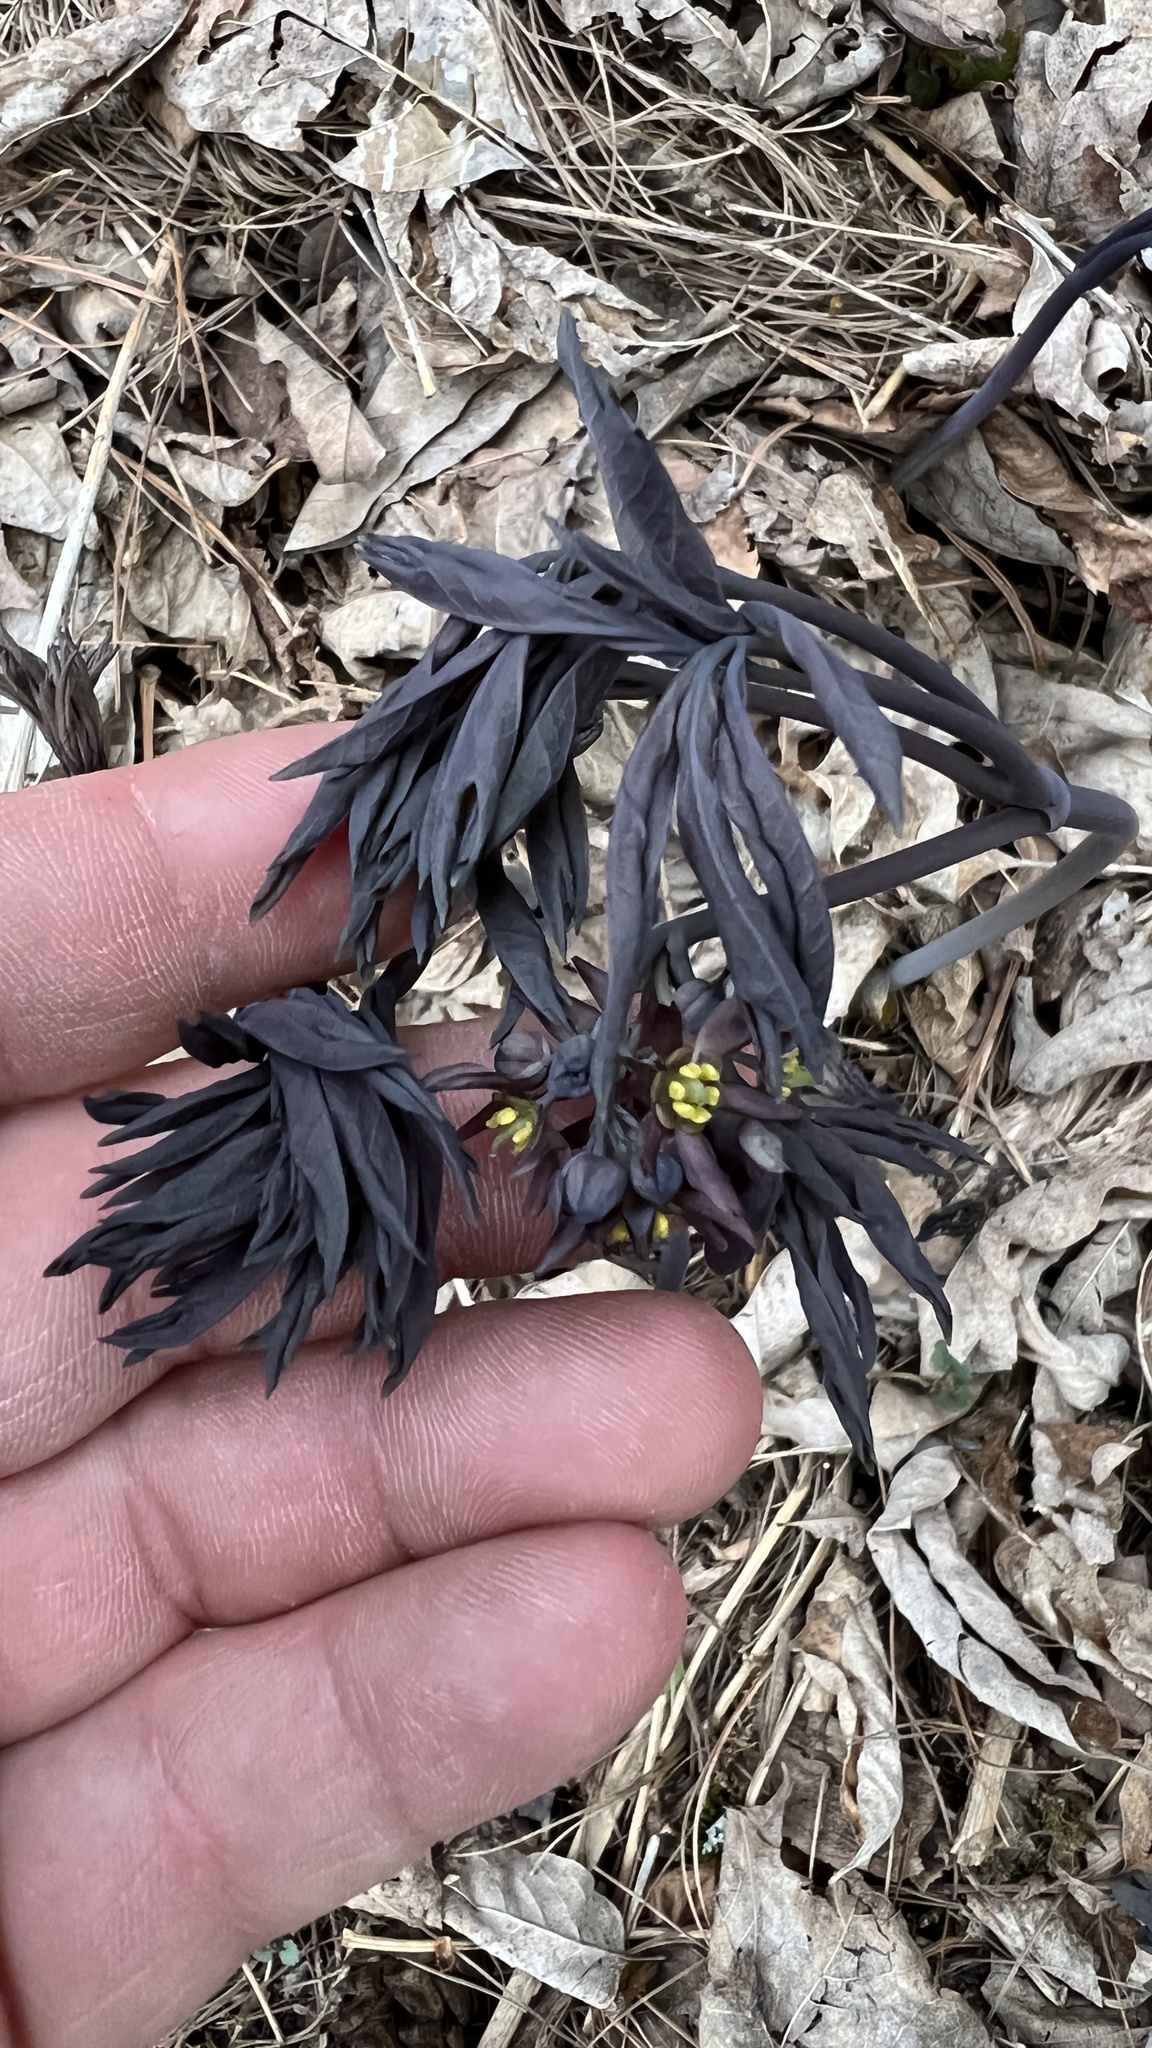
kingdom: Plantae
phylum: Tracheophyta
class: Magnoliopsida
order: Ranunculales
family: Berberidaceae
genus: Caulophyllum
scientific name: Caulophyllum giganteum
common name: Blue cohosh
